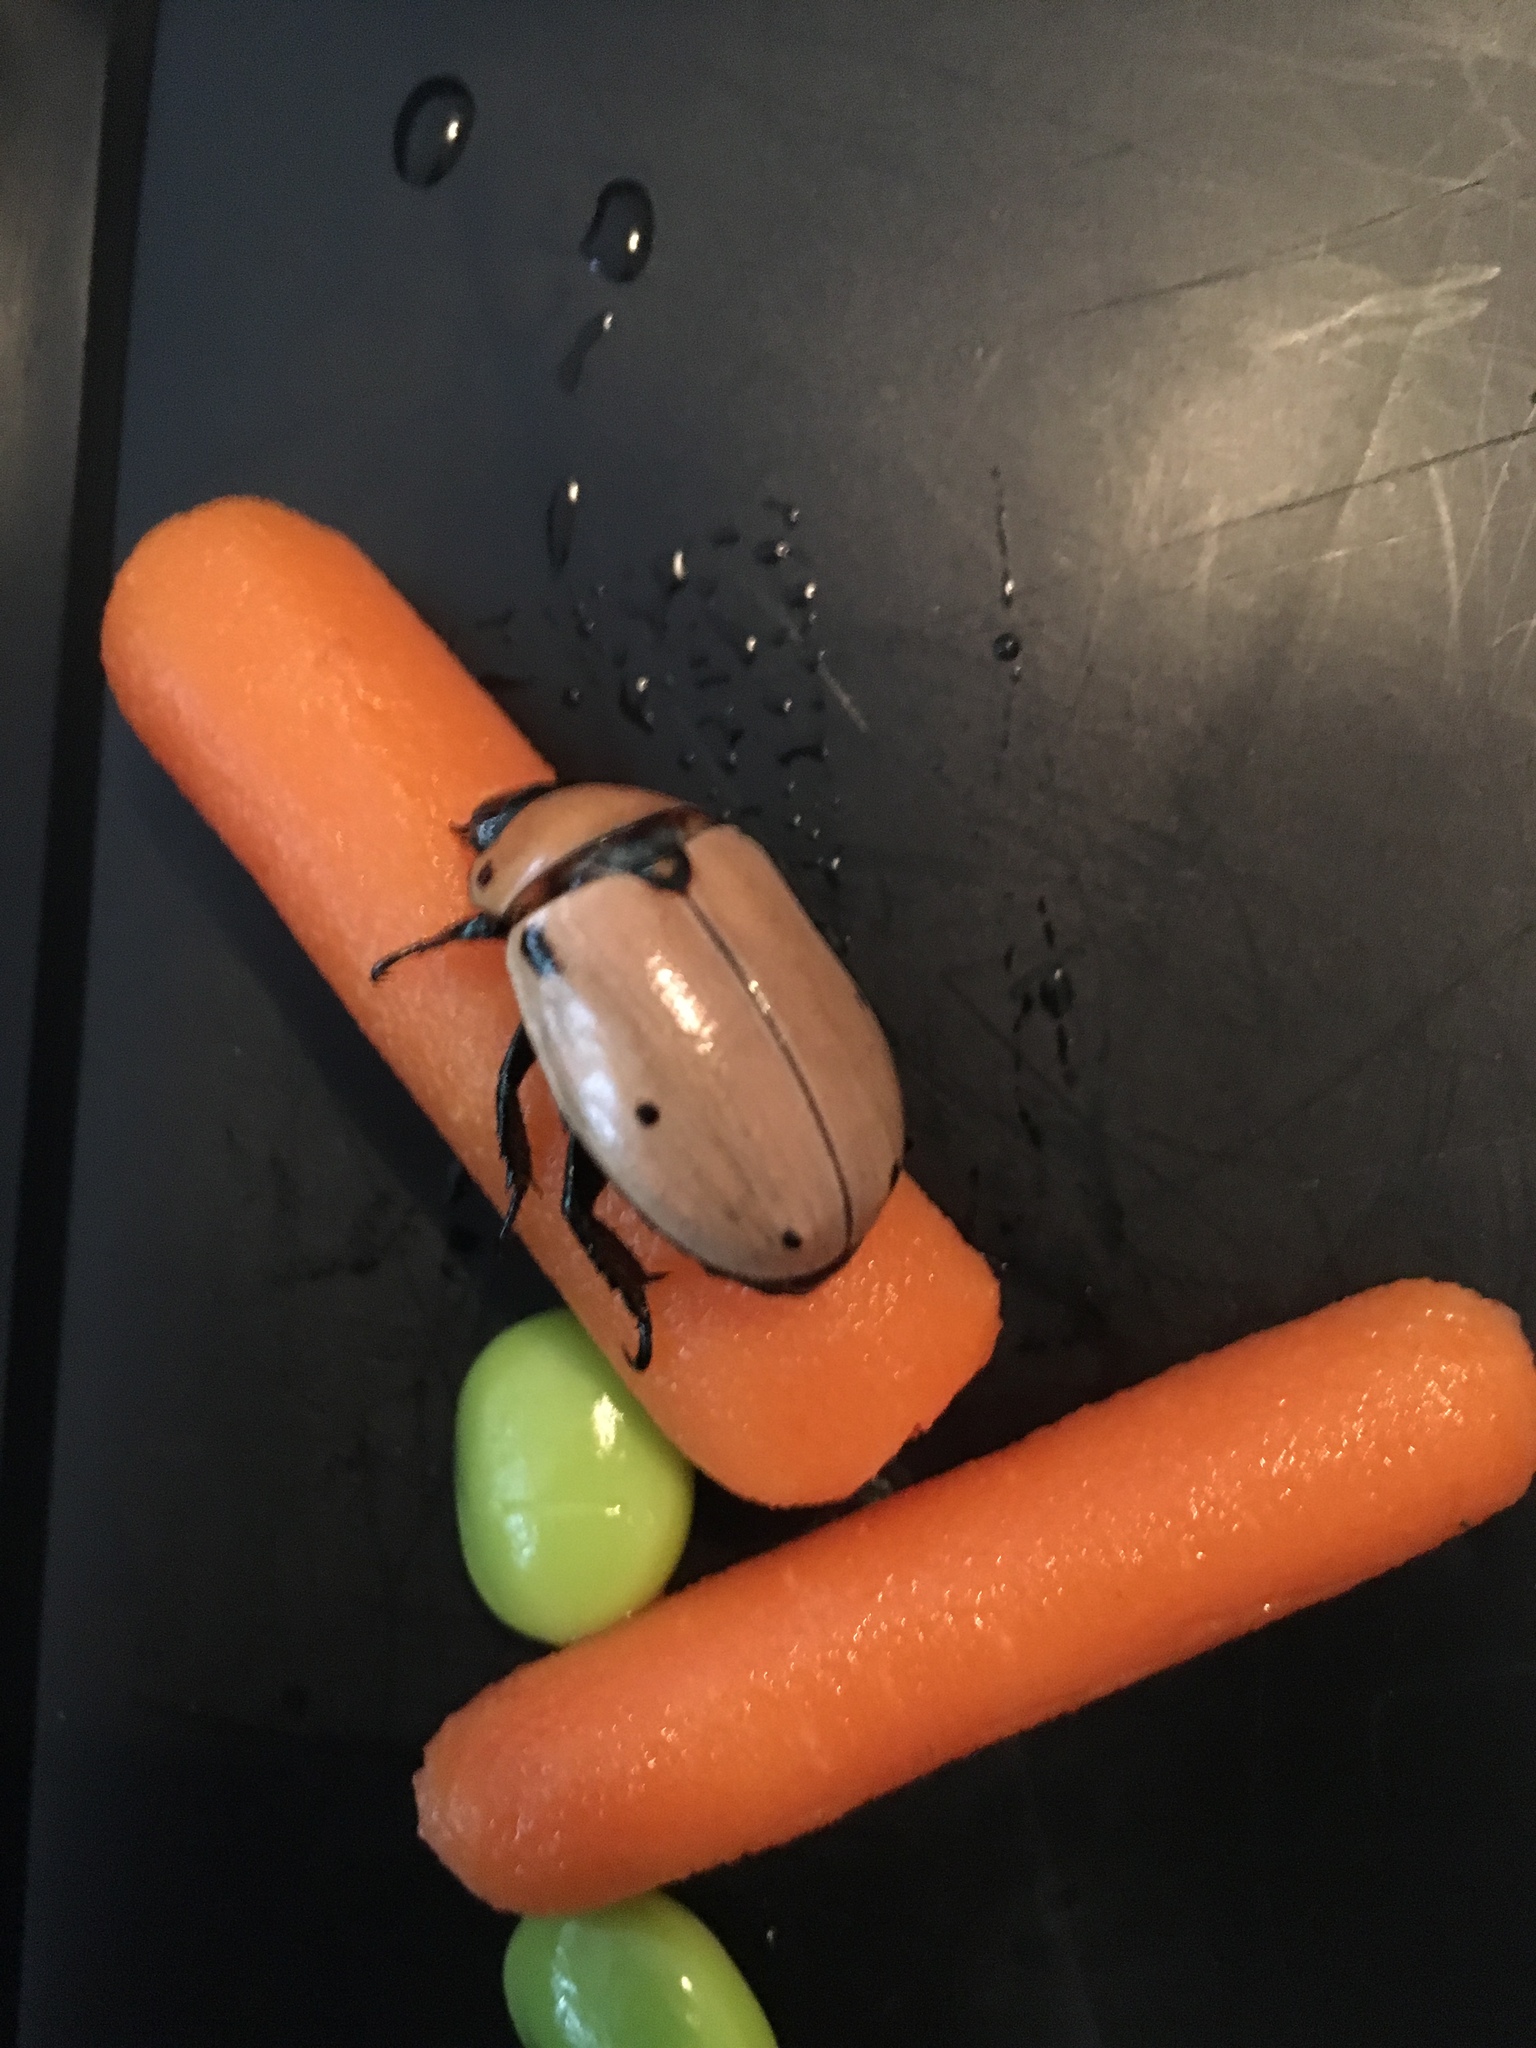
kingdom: Animalia
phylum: Arthropoda
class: Insecta
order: Coleoptera
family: Scarabaeidae
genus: Pelidnota
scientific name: Pelidnota punctata
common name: Grapevine beetle
